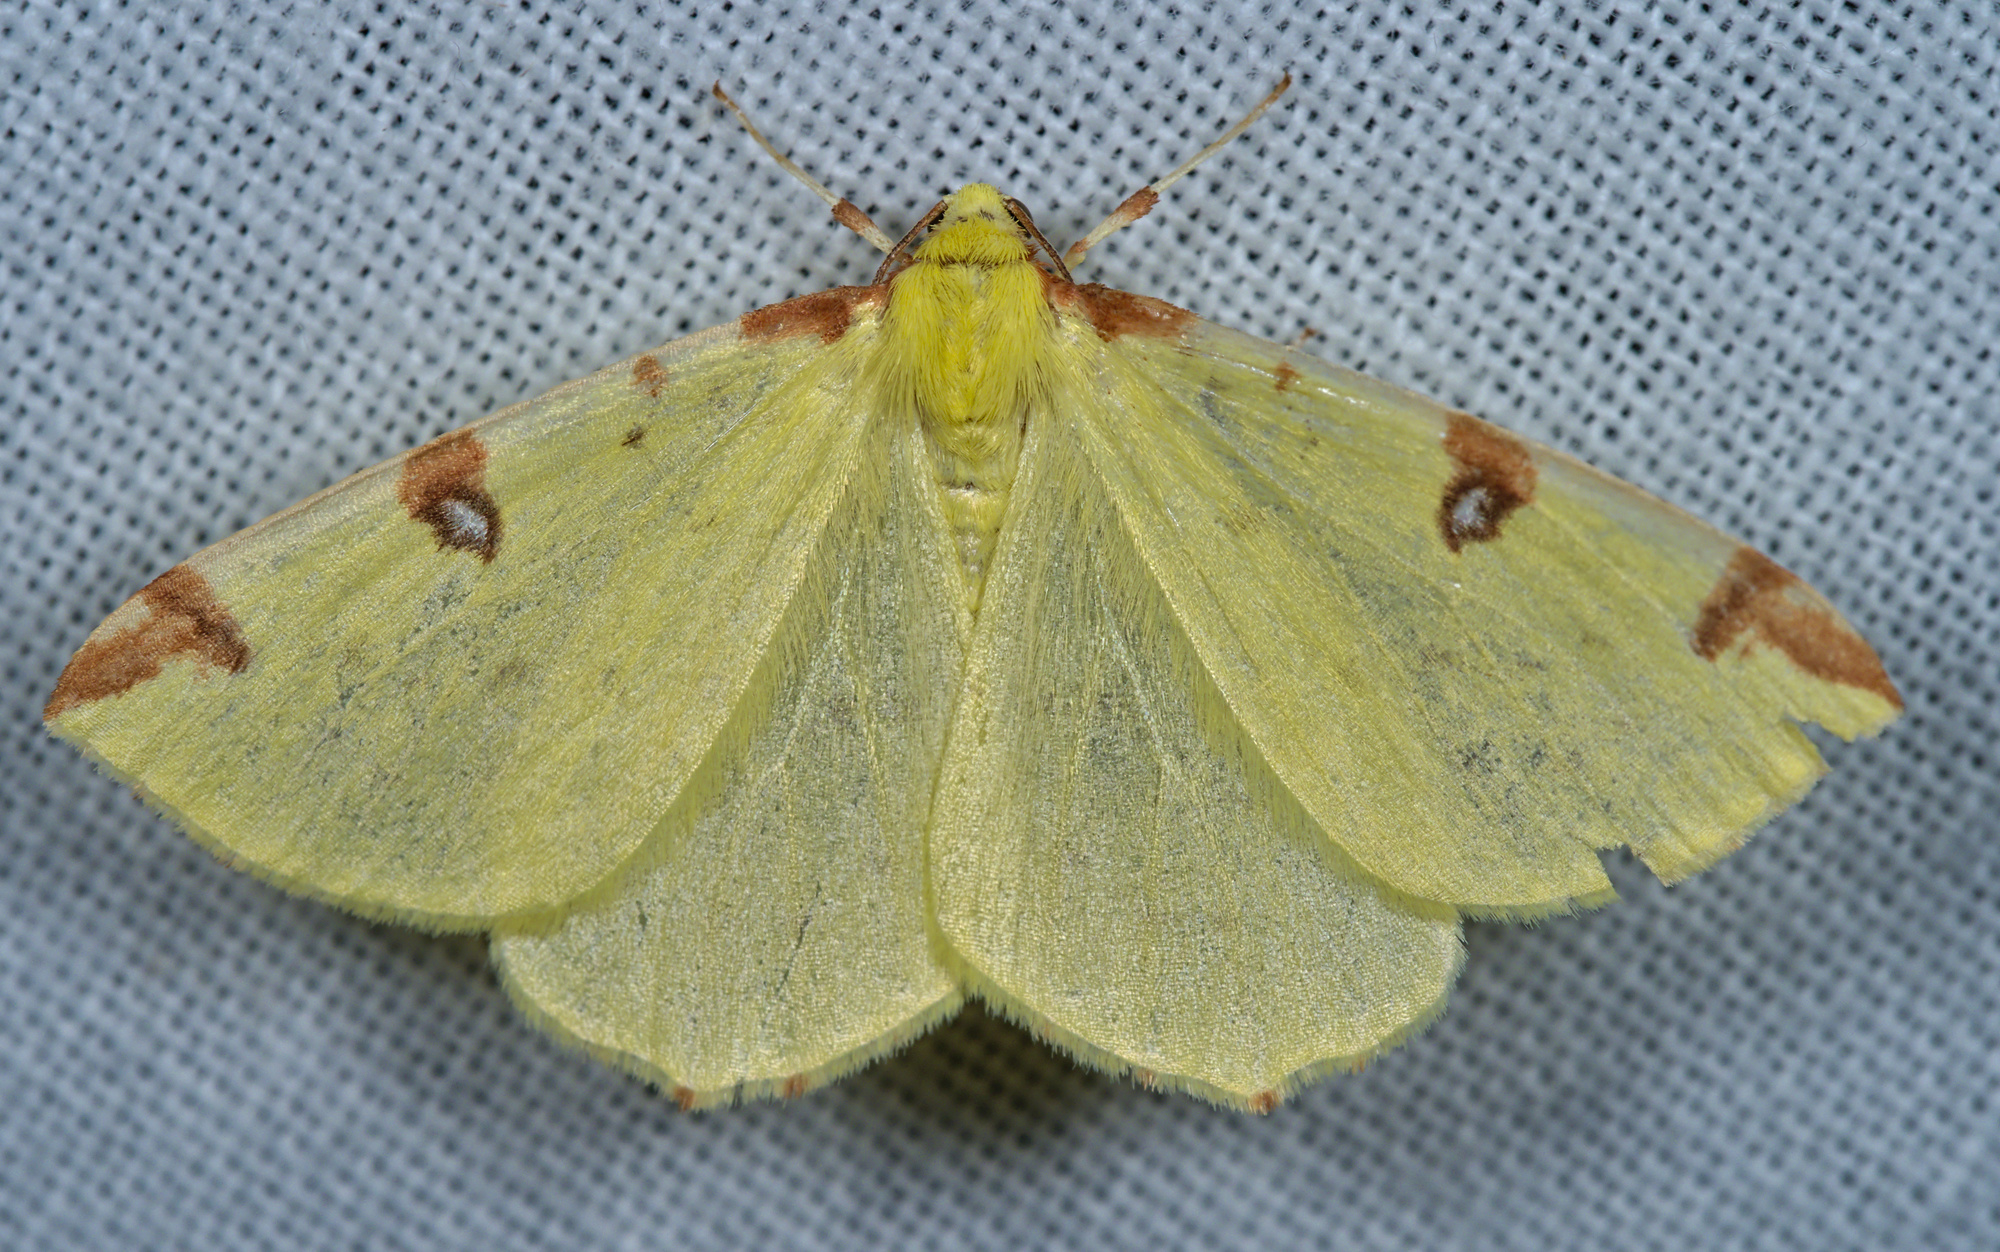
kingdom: Animalia
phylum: Arthropoda
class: Insecta
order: Lepidoptera
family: Geometridae
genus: Opisthograptis
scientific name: Opisthograptis luteolata
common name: Brimstone moth
